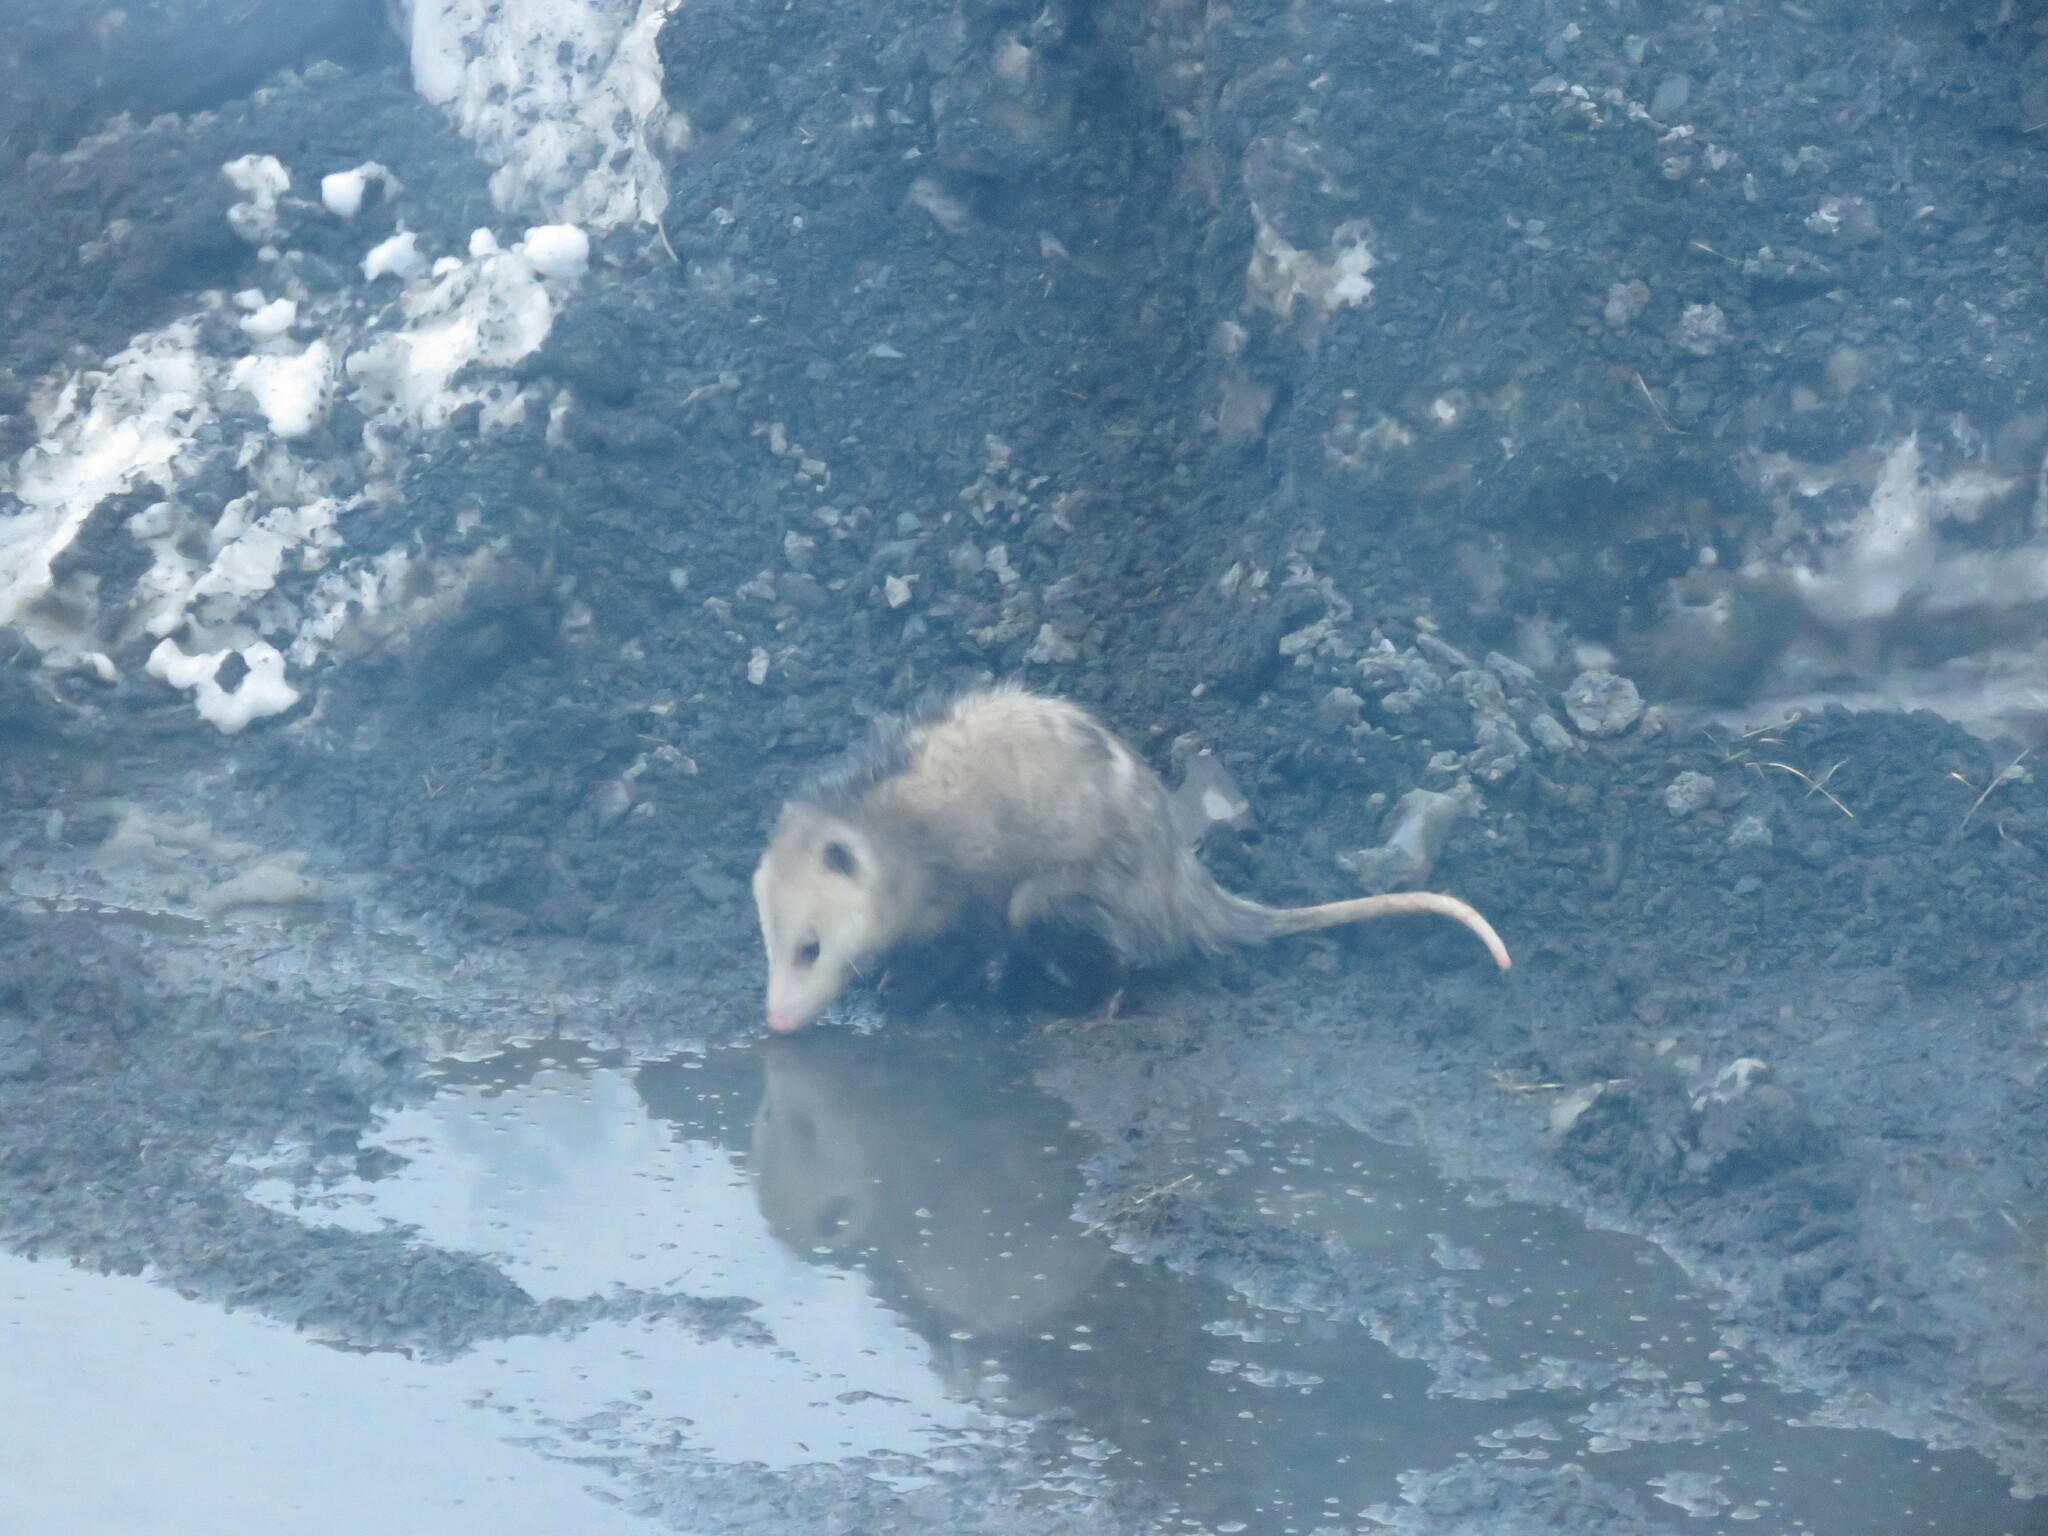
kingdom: Animalia
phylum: Chordata
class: Mammalia
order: Didelphimorphia
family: Didelphidae
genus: Didelphis
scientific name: Didelphis virginiana
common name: Virginia opossum
